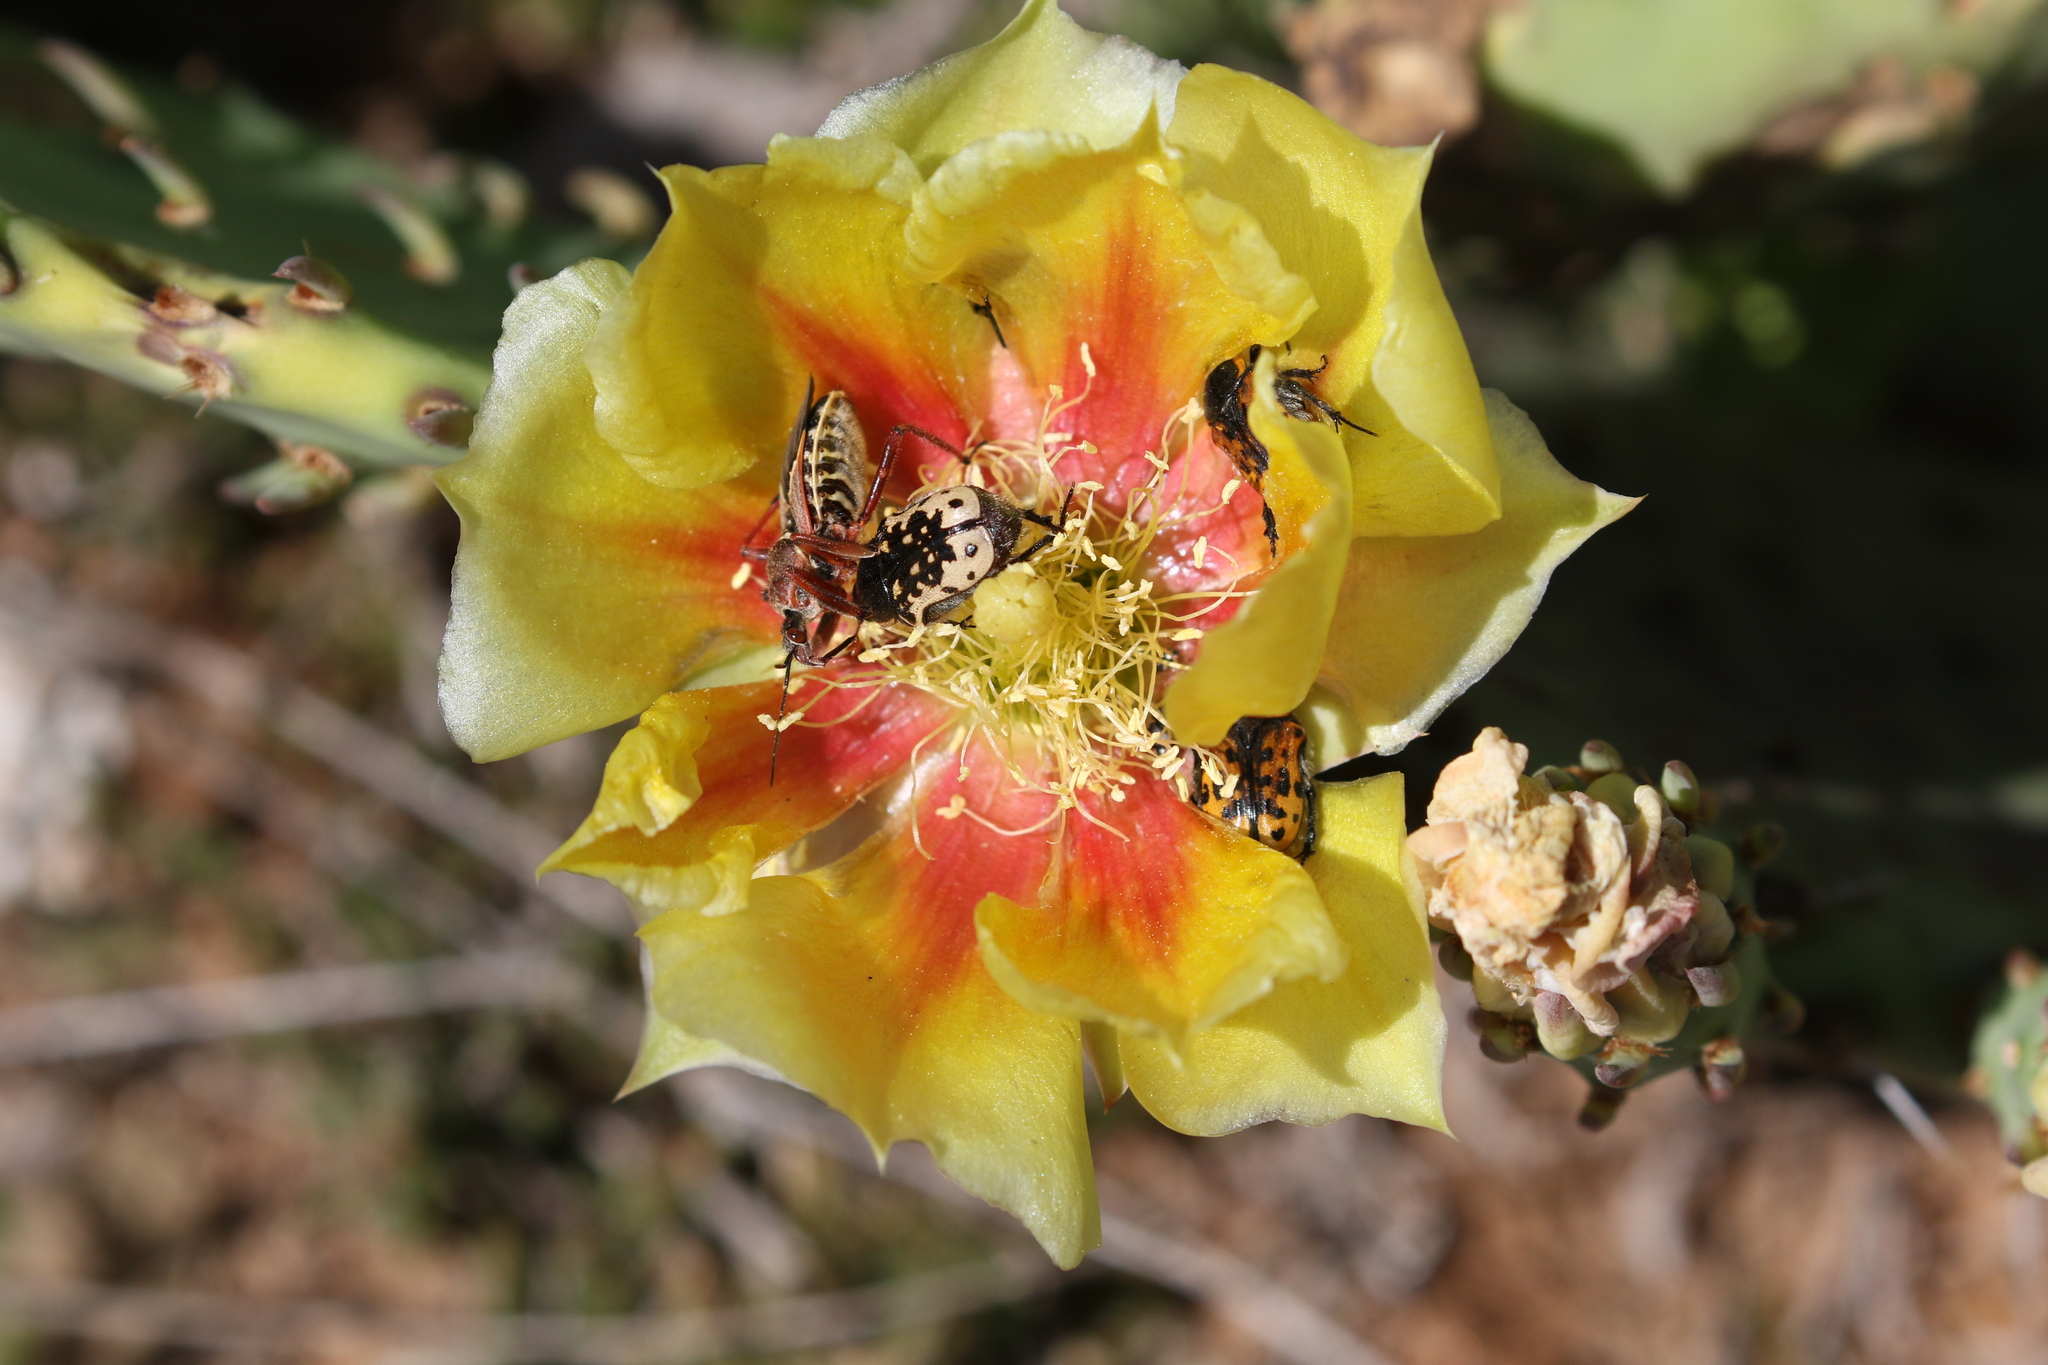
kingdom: Animalia
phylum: Arthropoda
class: Insecta
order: Coleoptera
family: Scarabaeidae
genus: Euphoria
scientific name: Euphoria kernii
